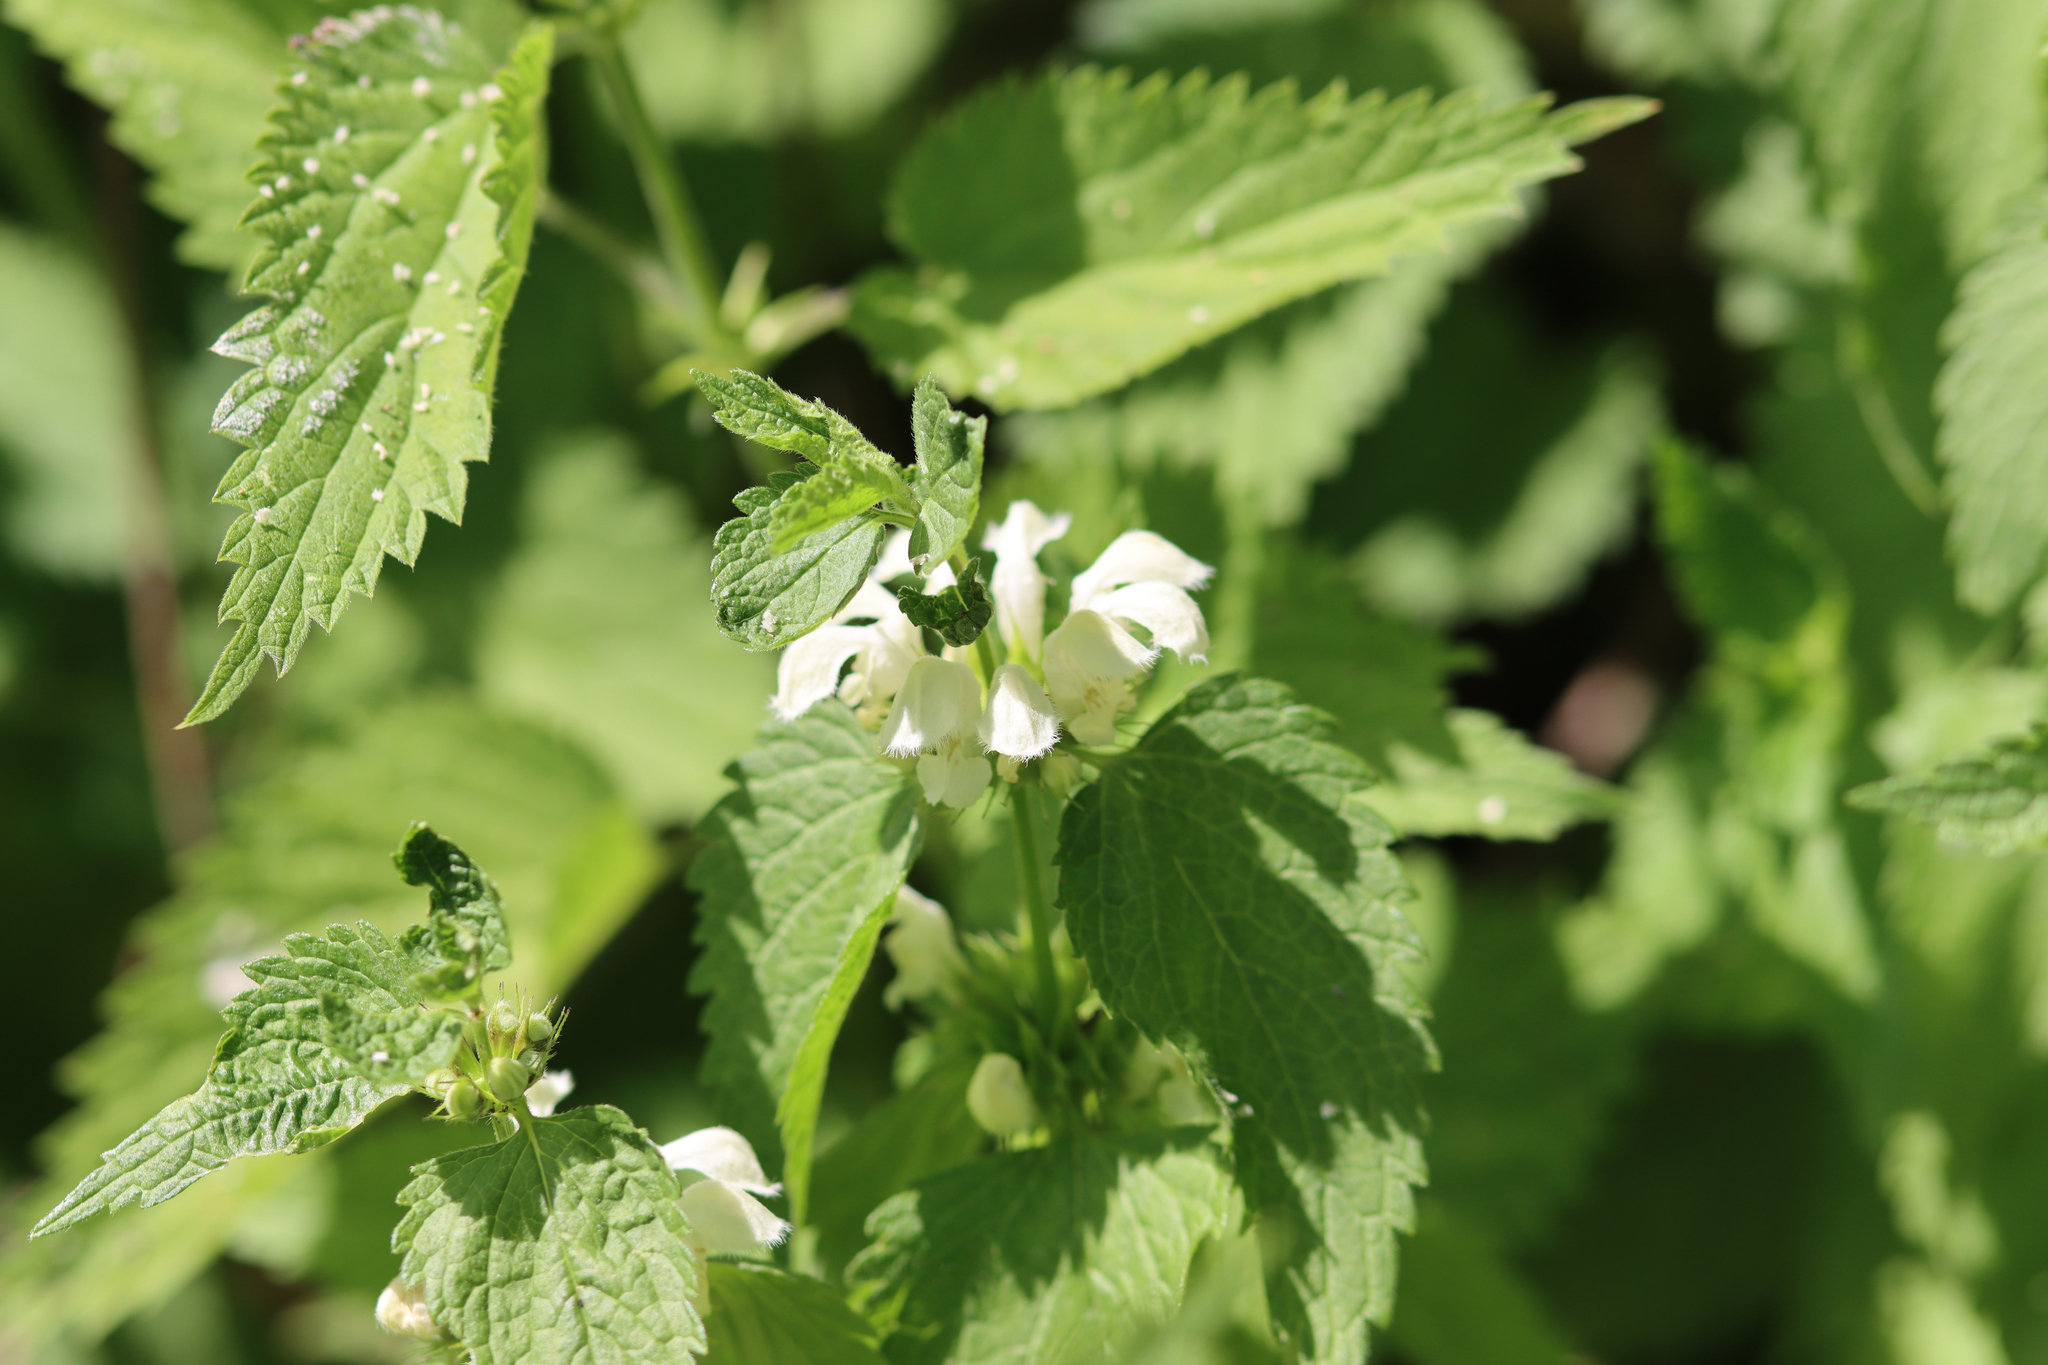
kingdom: Plantae
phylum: Tracheophyta
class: Magnoliopsida
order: Lamiales
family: Lamiaceae
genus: Lamium
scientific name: Lamium album
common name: White dead-nettle
